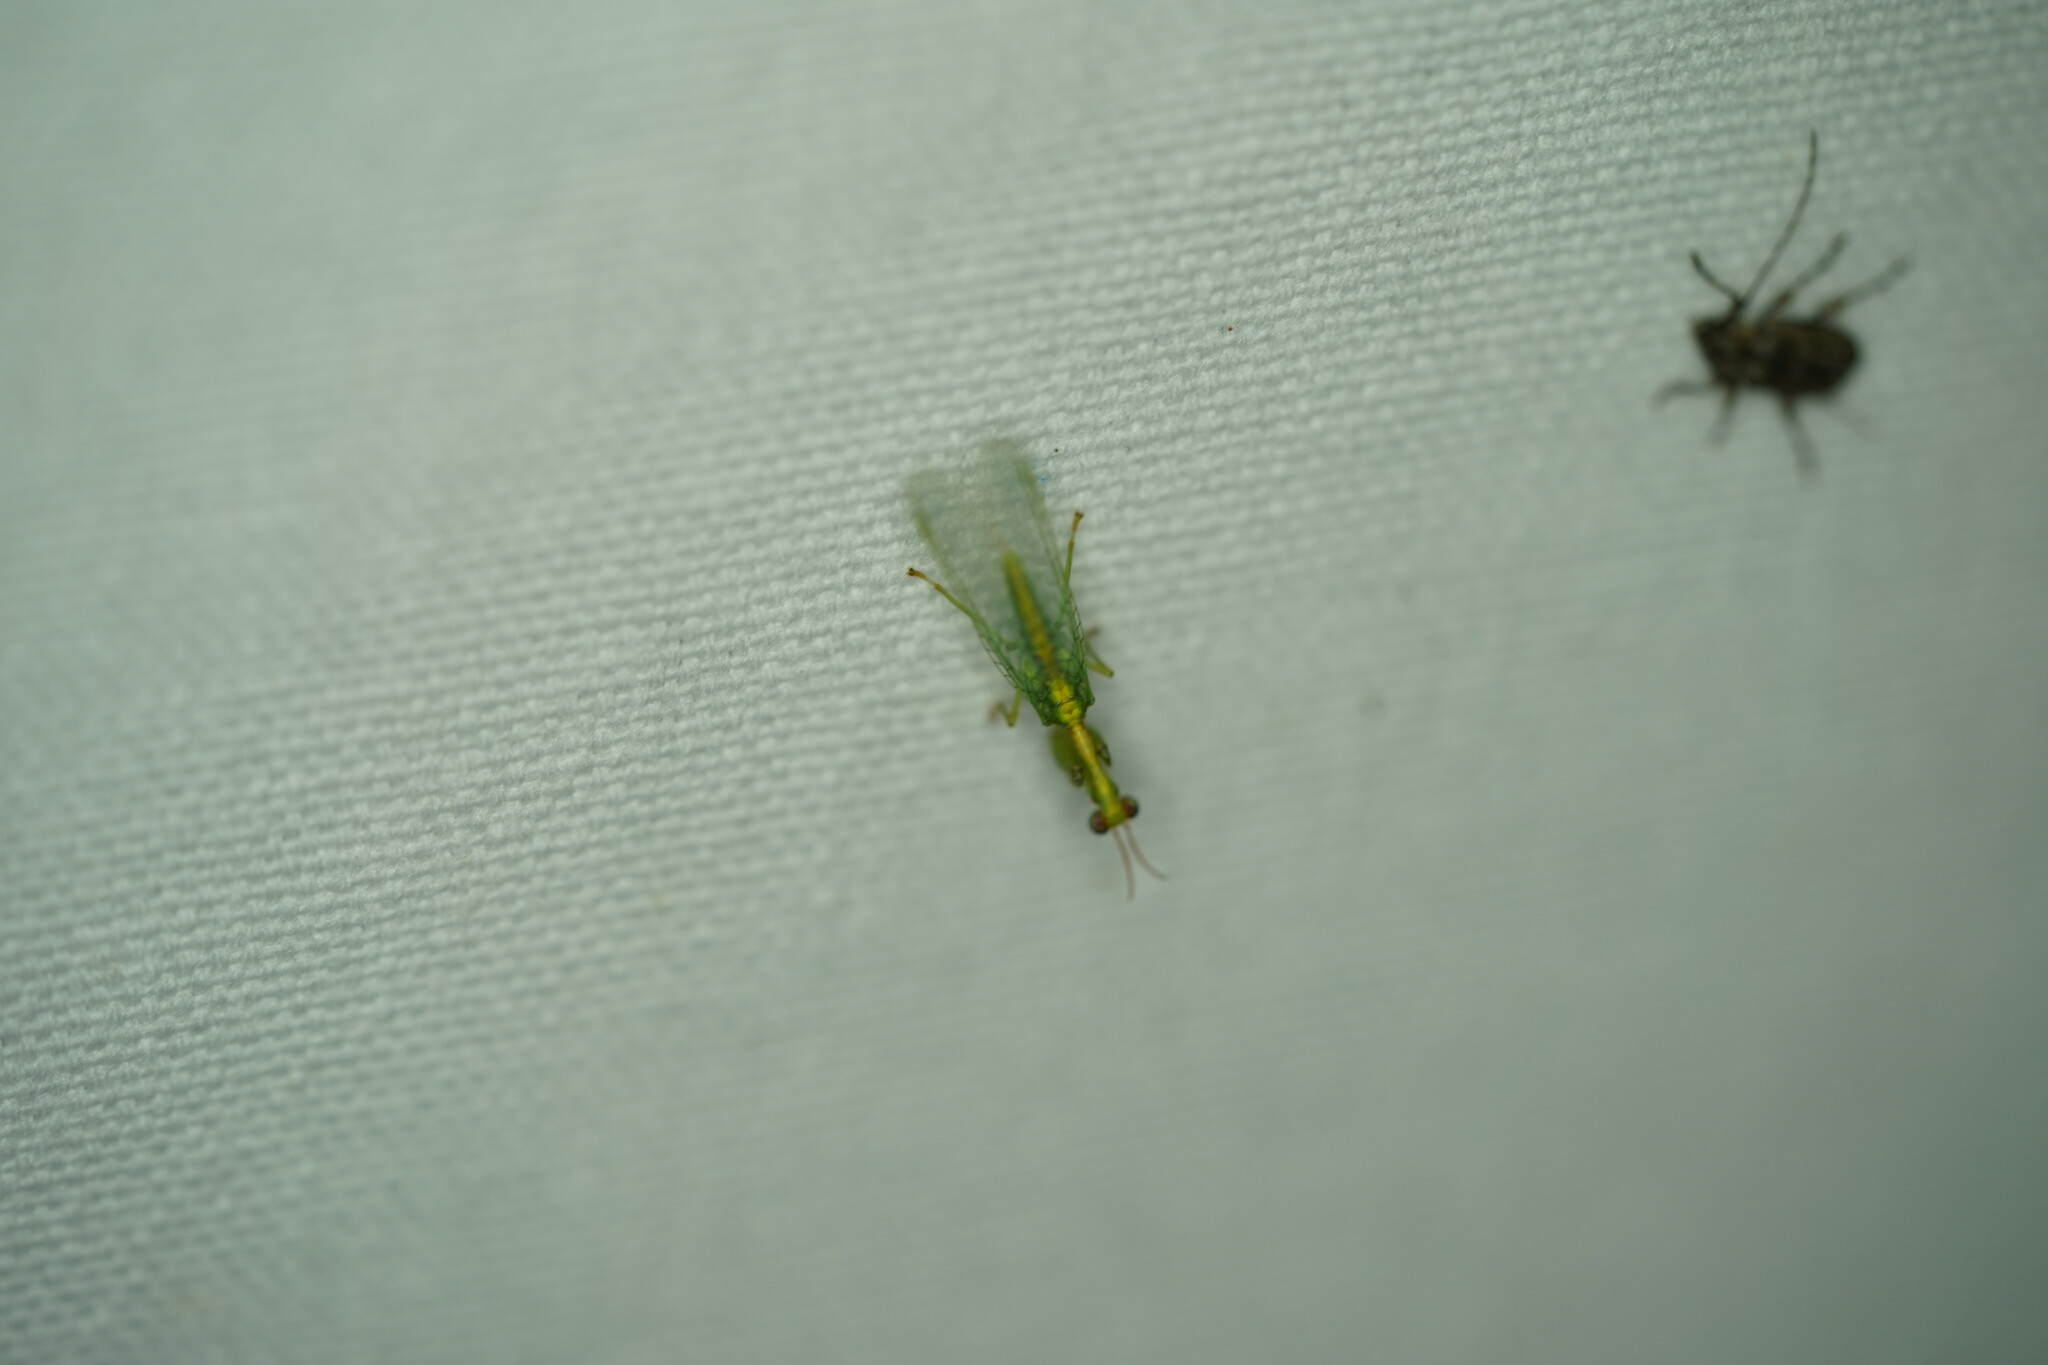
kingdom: Animalia
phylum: Arthropoda
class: Insecta
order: Neuroptera
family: Mantispidae
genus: Zeugomantispa
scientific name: Zeugomantispa minuta
